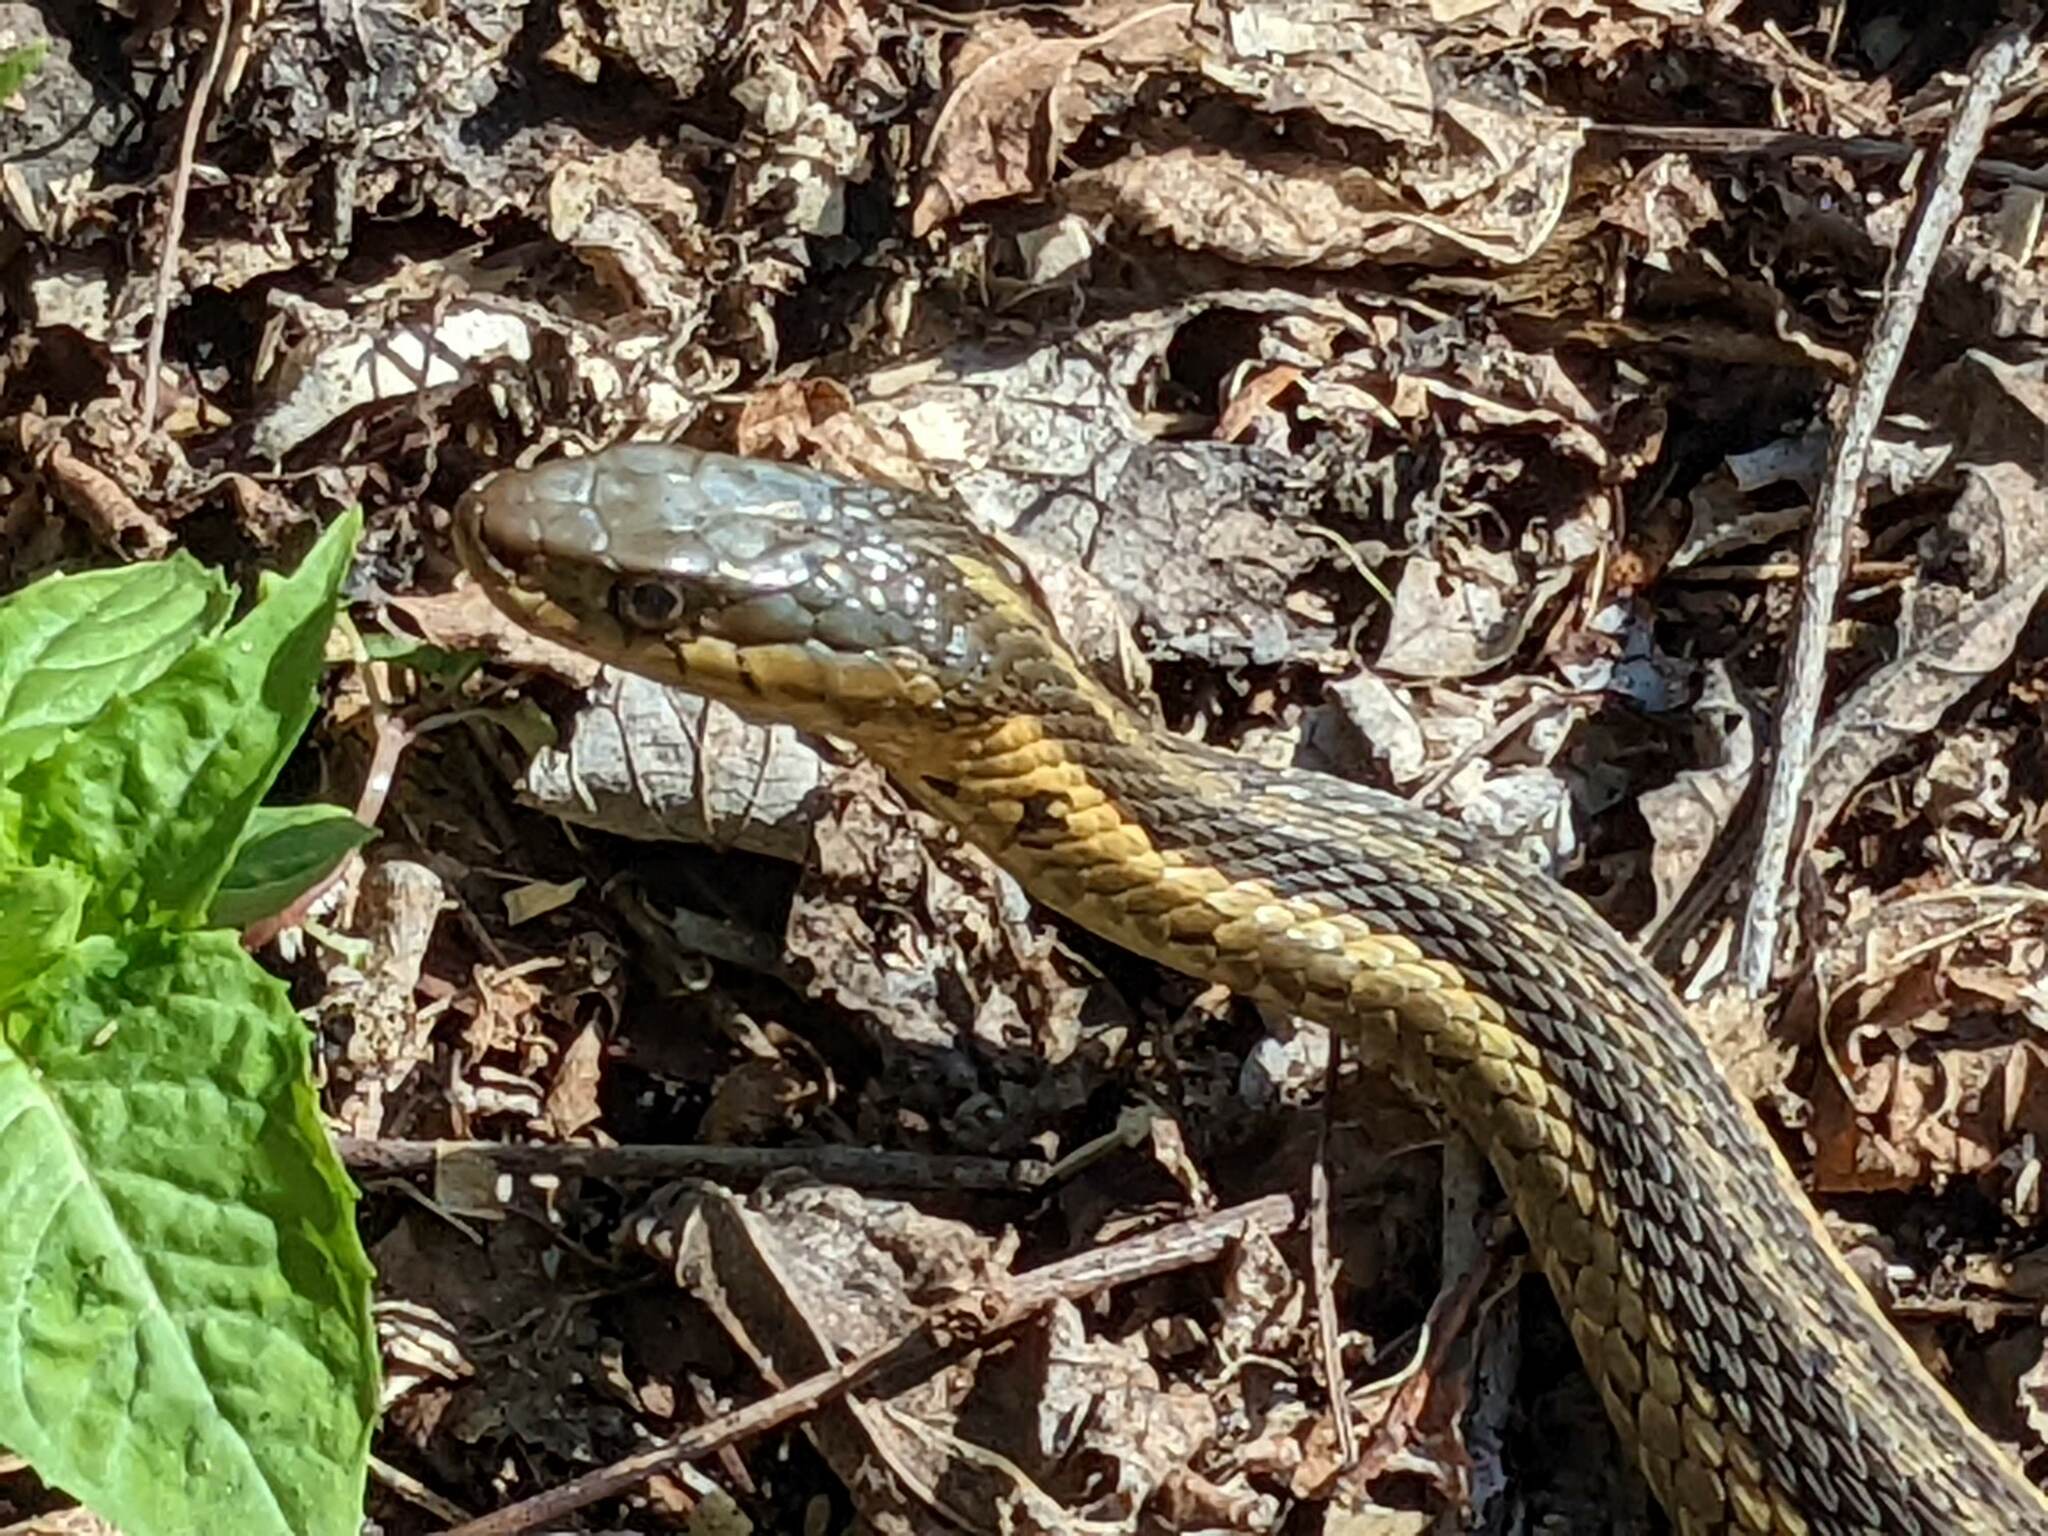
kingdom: Animalia
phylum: Chordata
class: Squamata
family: Colubridae
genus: Thamnophis
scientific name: Thamnophis sirtalis
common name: Common garter snake
